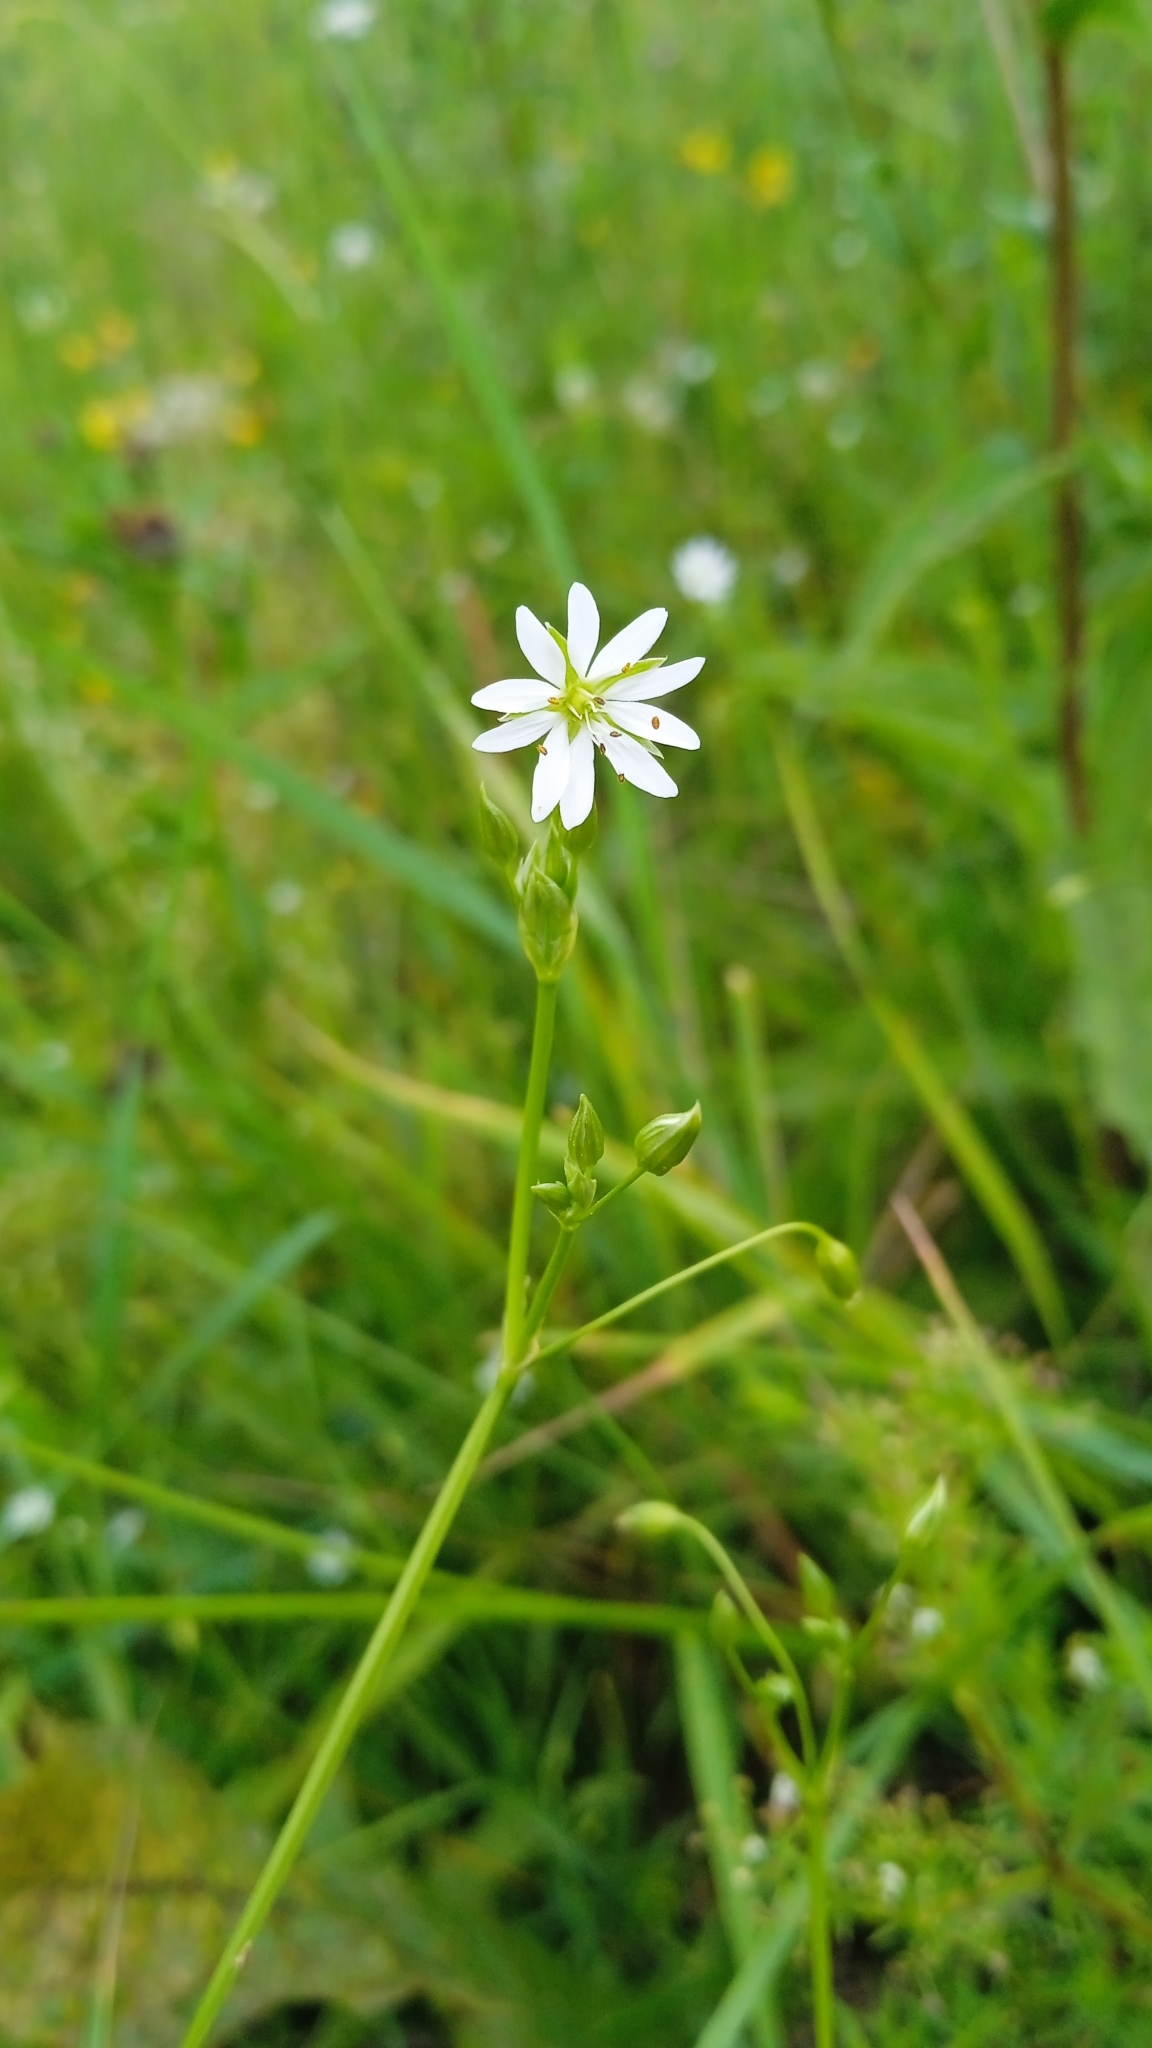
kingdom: Plantae
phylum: Tracheophyta
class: Magnoliopsida
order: Caryophyllales
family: Caryophyllaceae
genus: Stellaria
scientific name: Stellaria graminea
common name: Grass-like starwort
